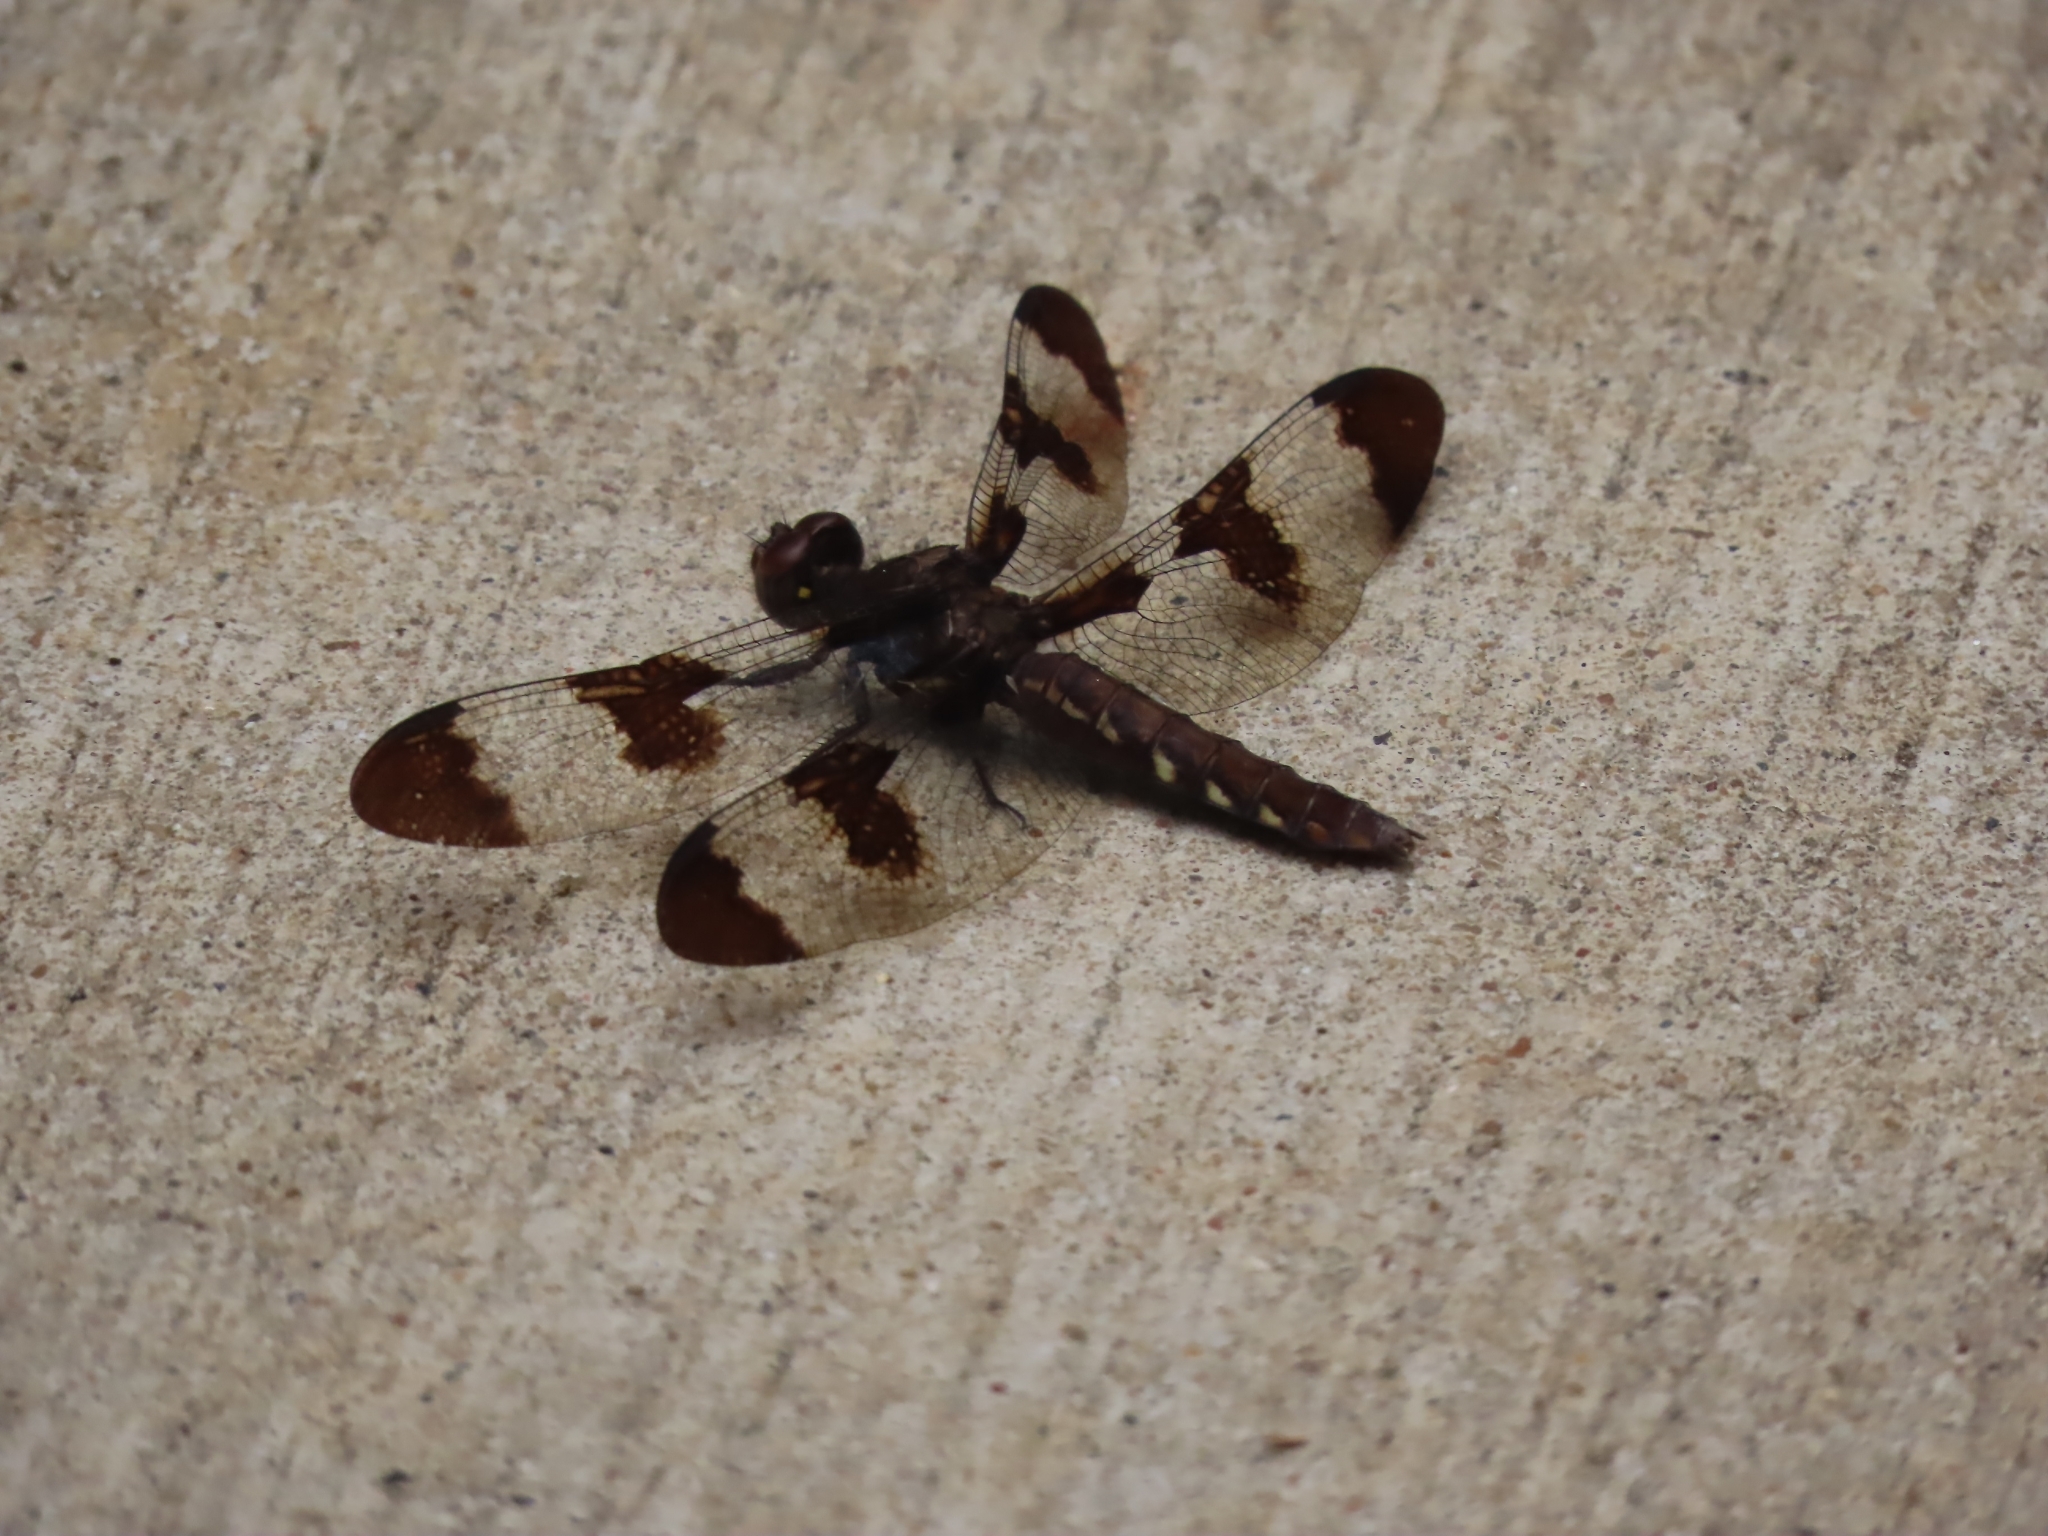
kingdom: Animalia
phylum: Arthropoda
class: Insecta
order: Odonata
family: Libellulidae
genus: Plathemis
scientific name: Plathemis lydia
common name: Common whitetail
